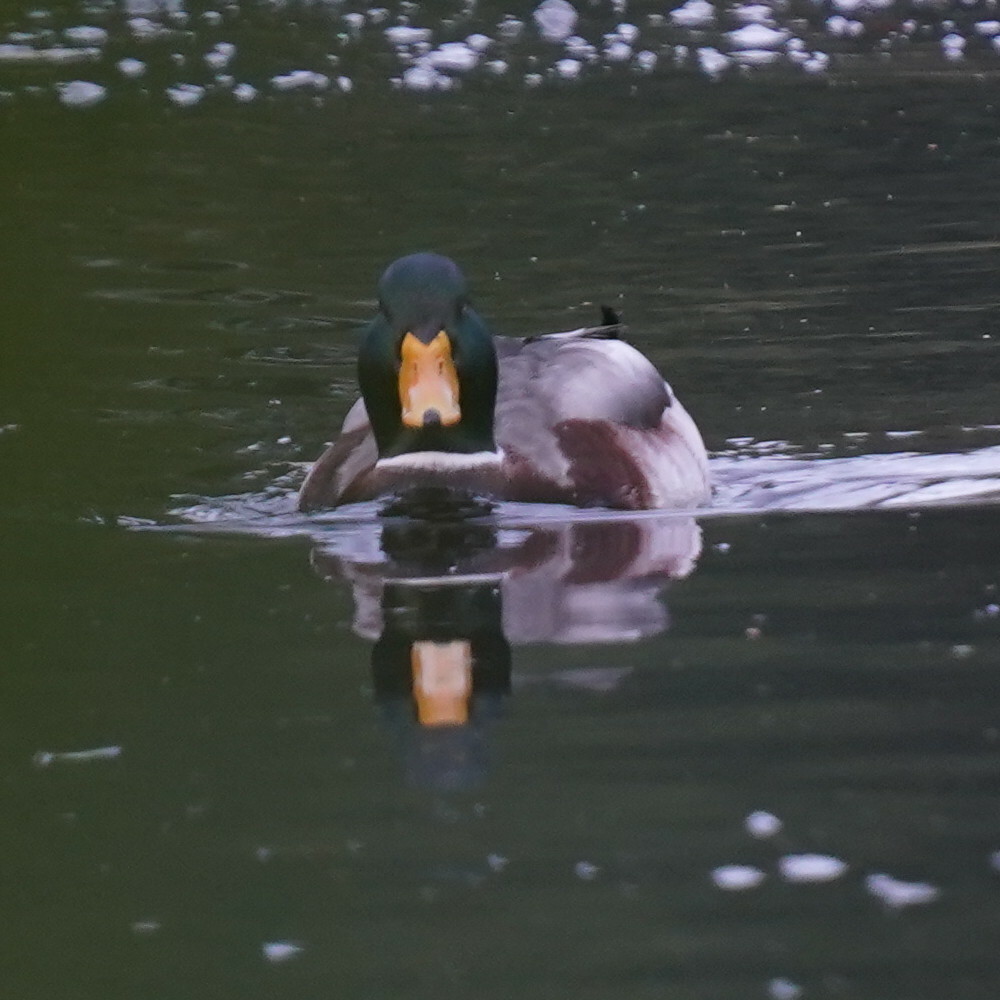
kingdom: Animalia
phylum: Chordata
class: Aves
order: Anseriformes
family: Anatidae
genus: Anas
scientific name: Anas platyrhynchos
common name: Mallard
